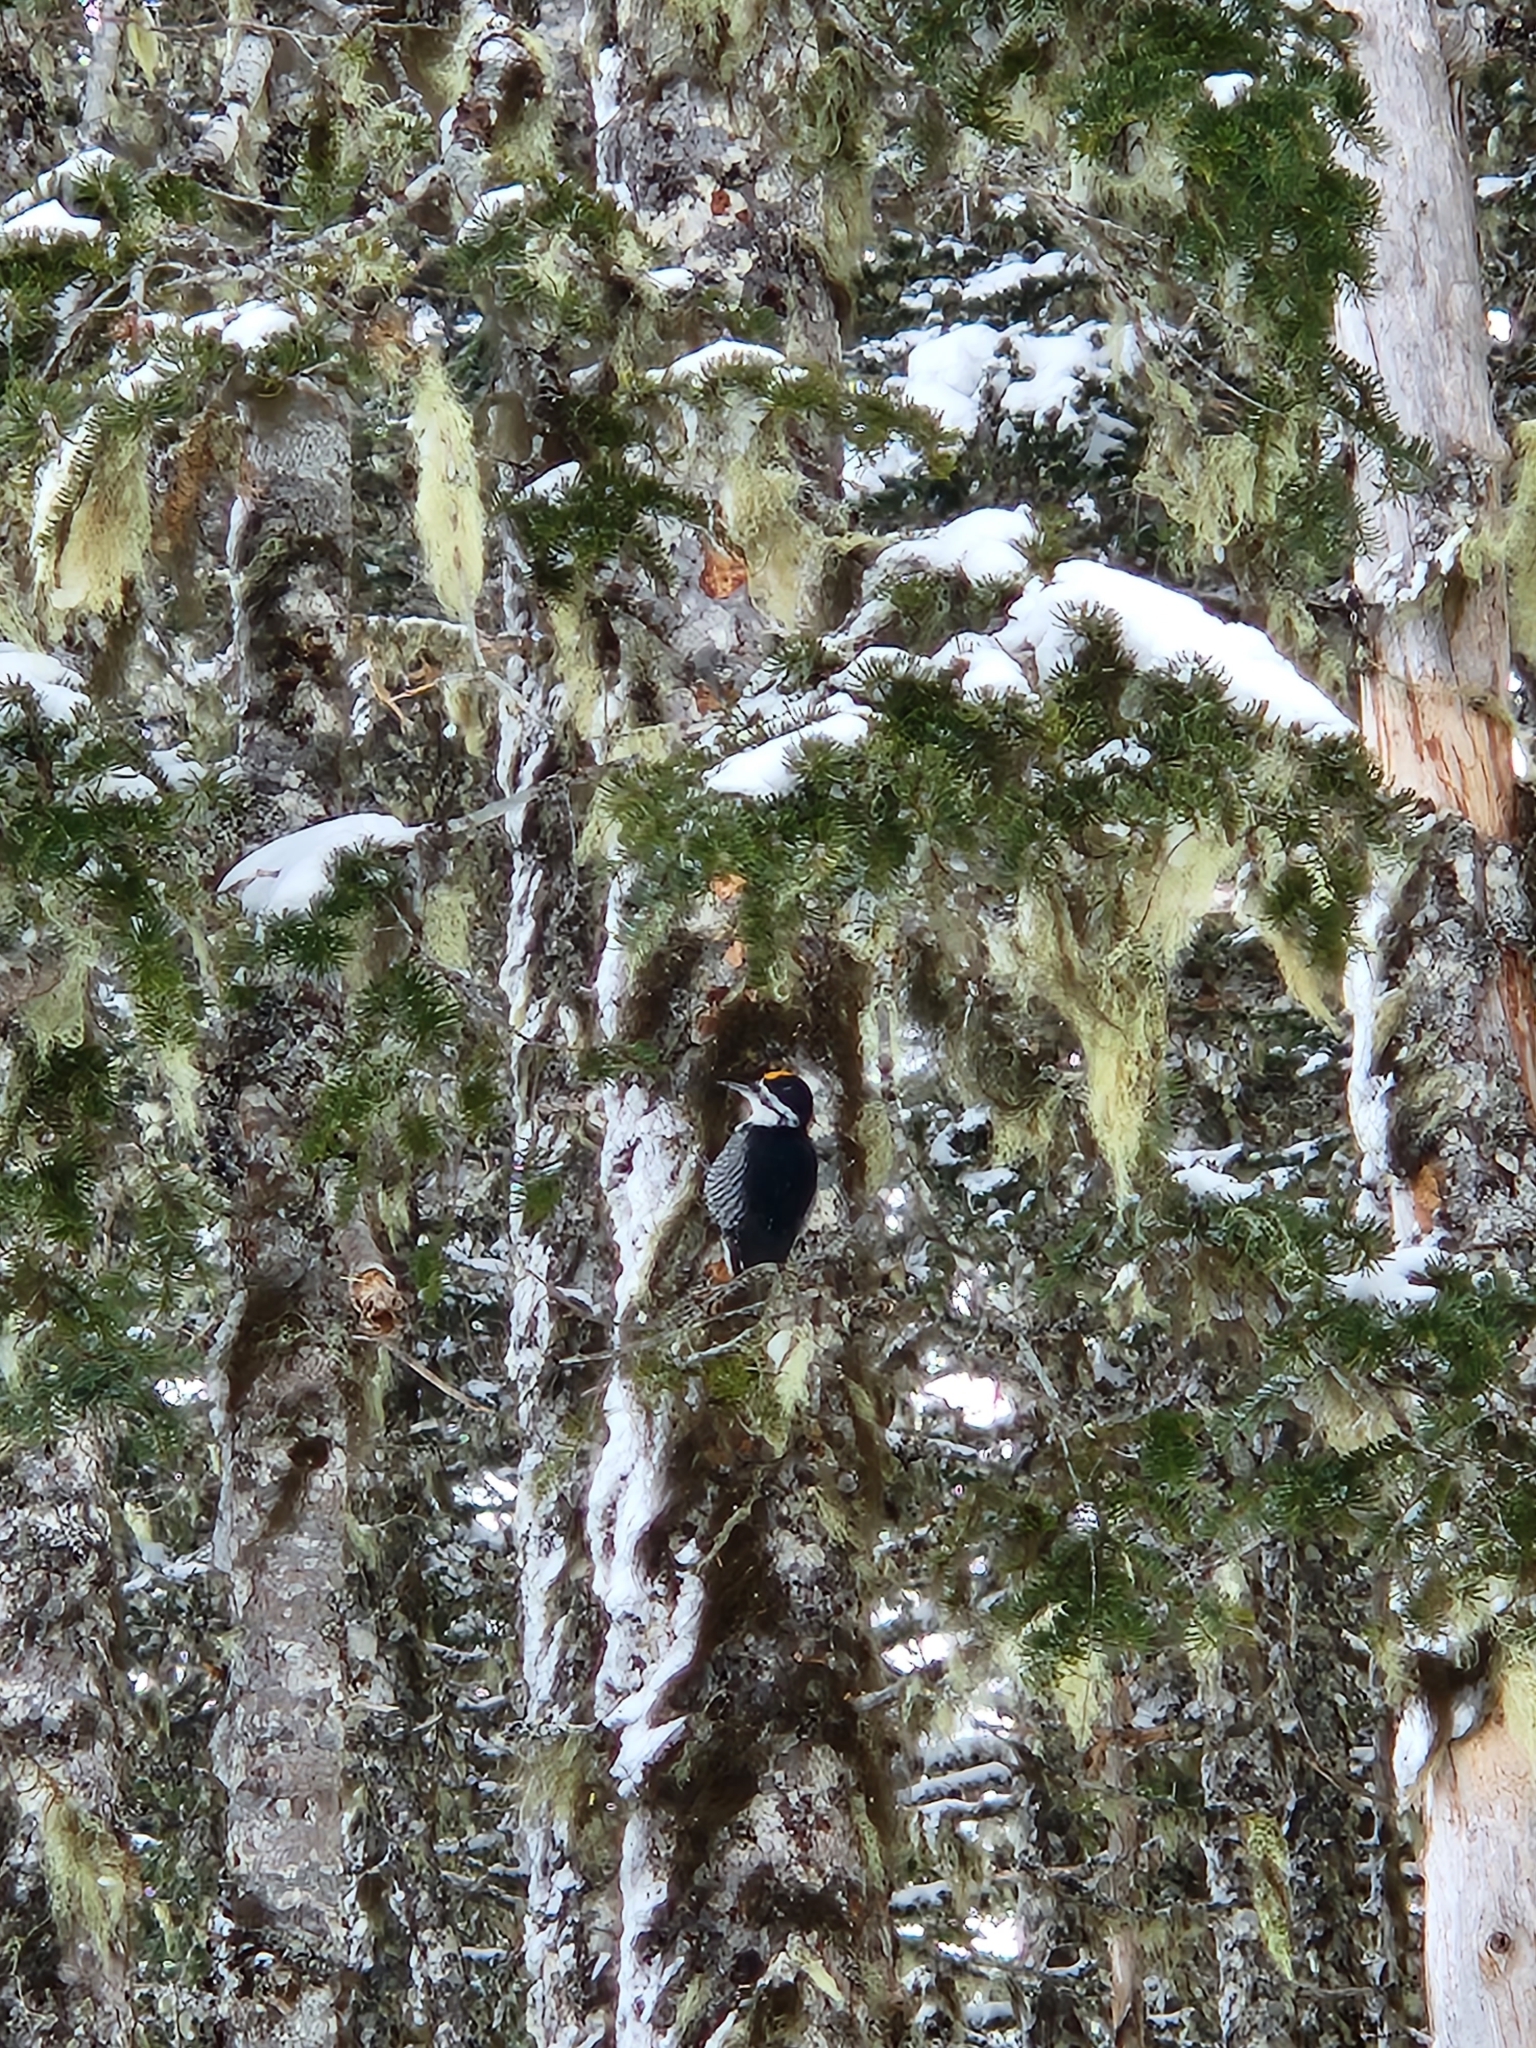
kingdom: Animalia
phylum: Chordata
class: Aves
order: Piciformes
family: Picidae
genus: Picoides
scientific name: Picoides arcticus
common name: Black-backed woodpecker
